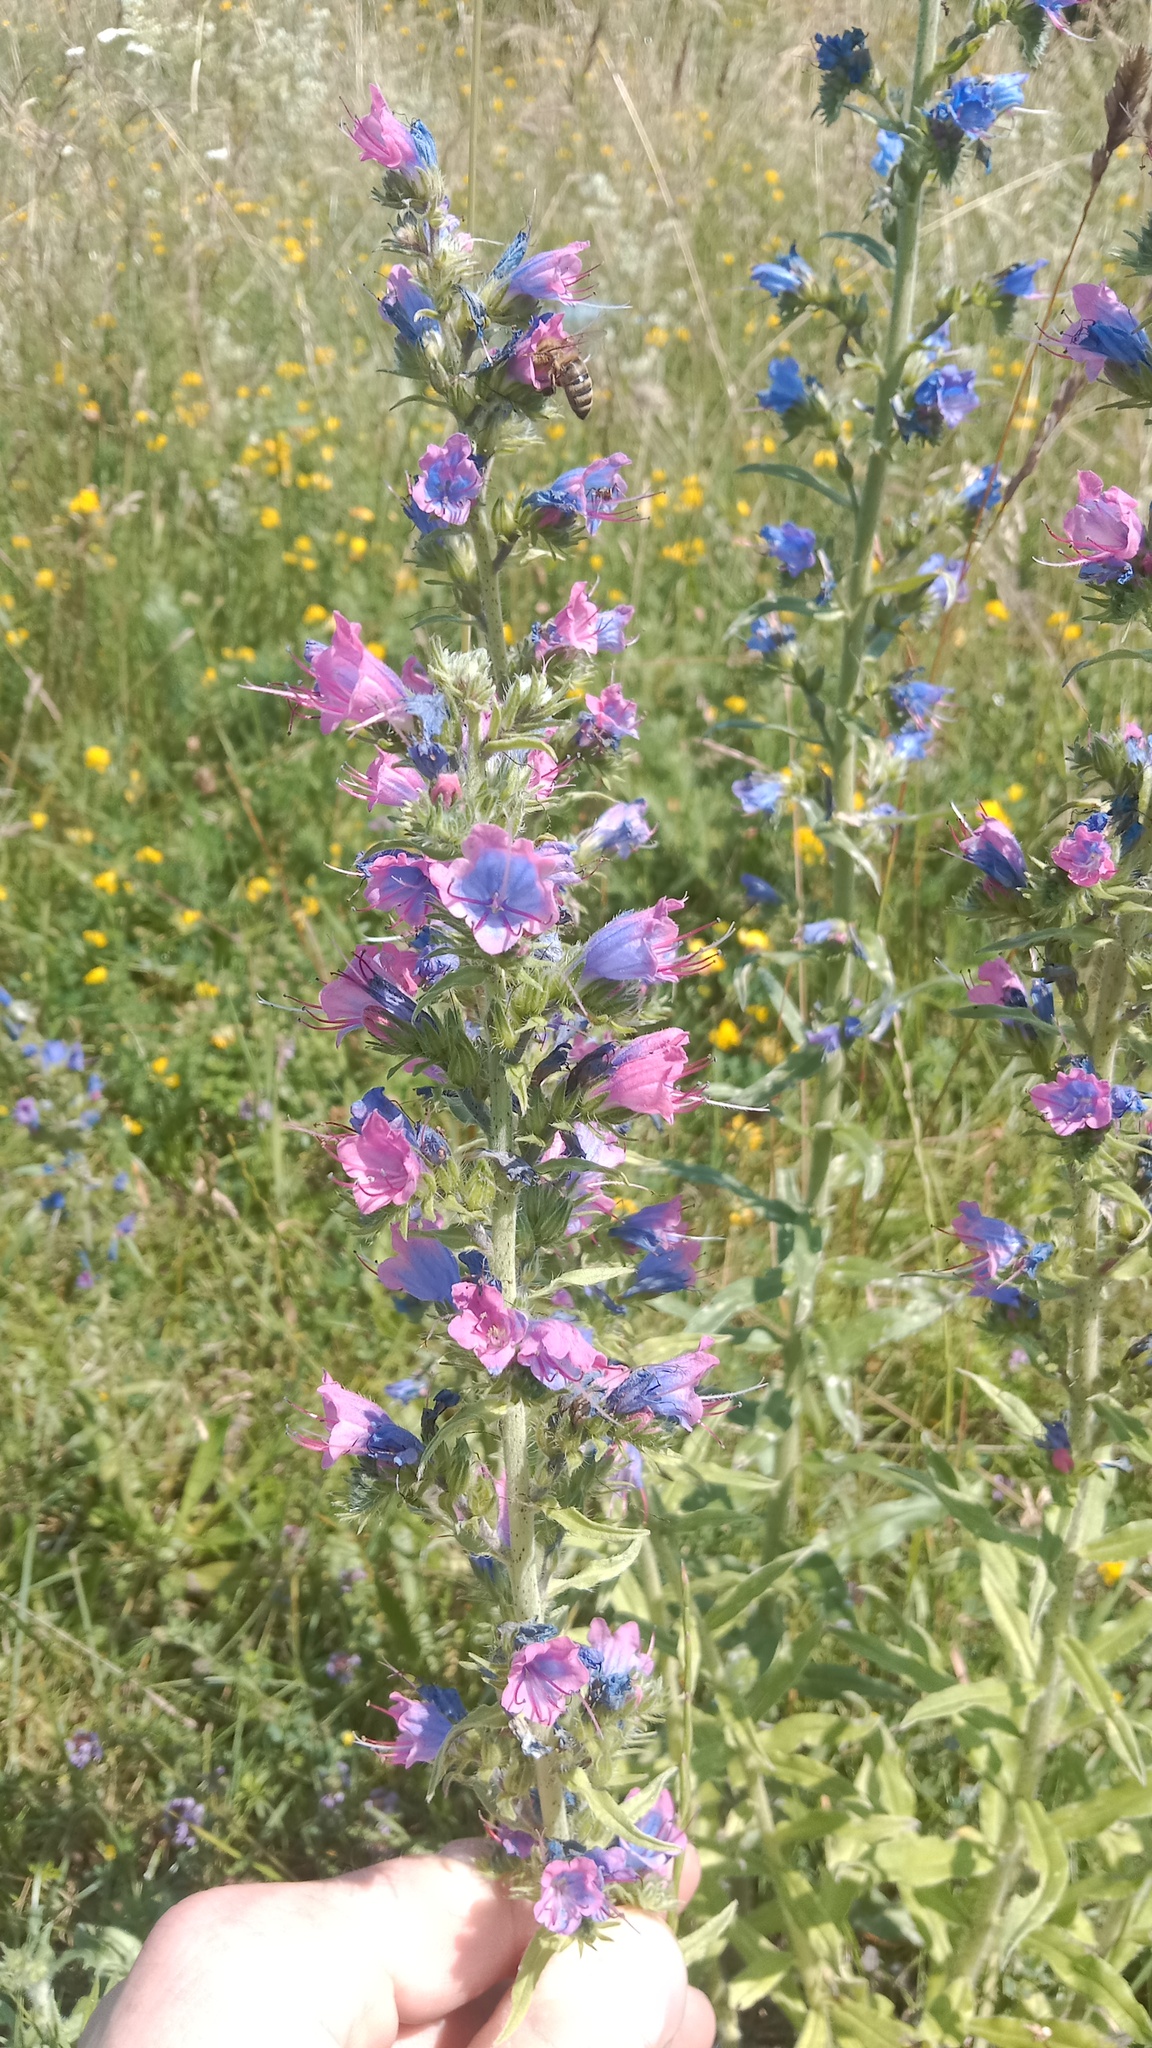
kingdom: Plantae
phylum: Tracheophyta
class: Magnoliopsida
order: Boraginales
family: Boraginaceae
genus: Echium
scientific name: Echium vulgare
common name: Common viper's bugloss
